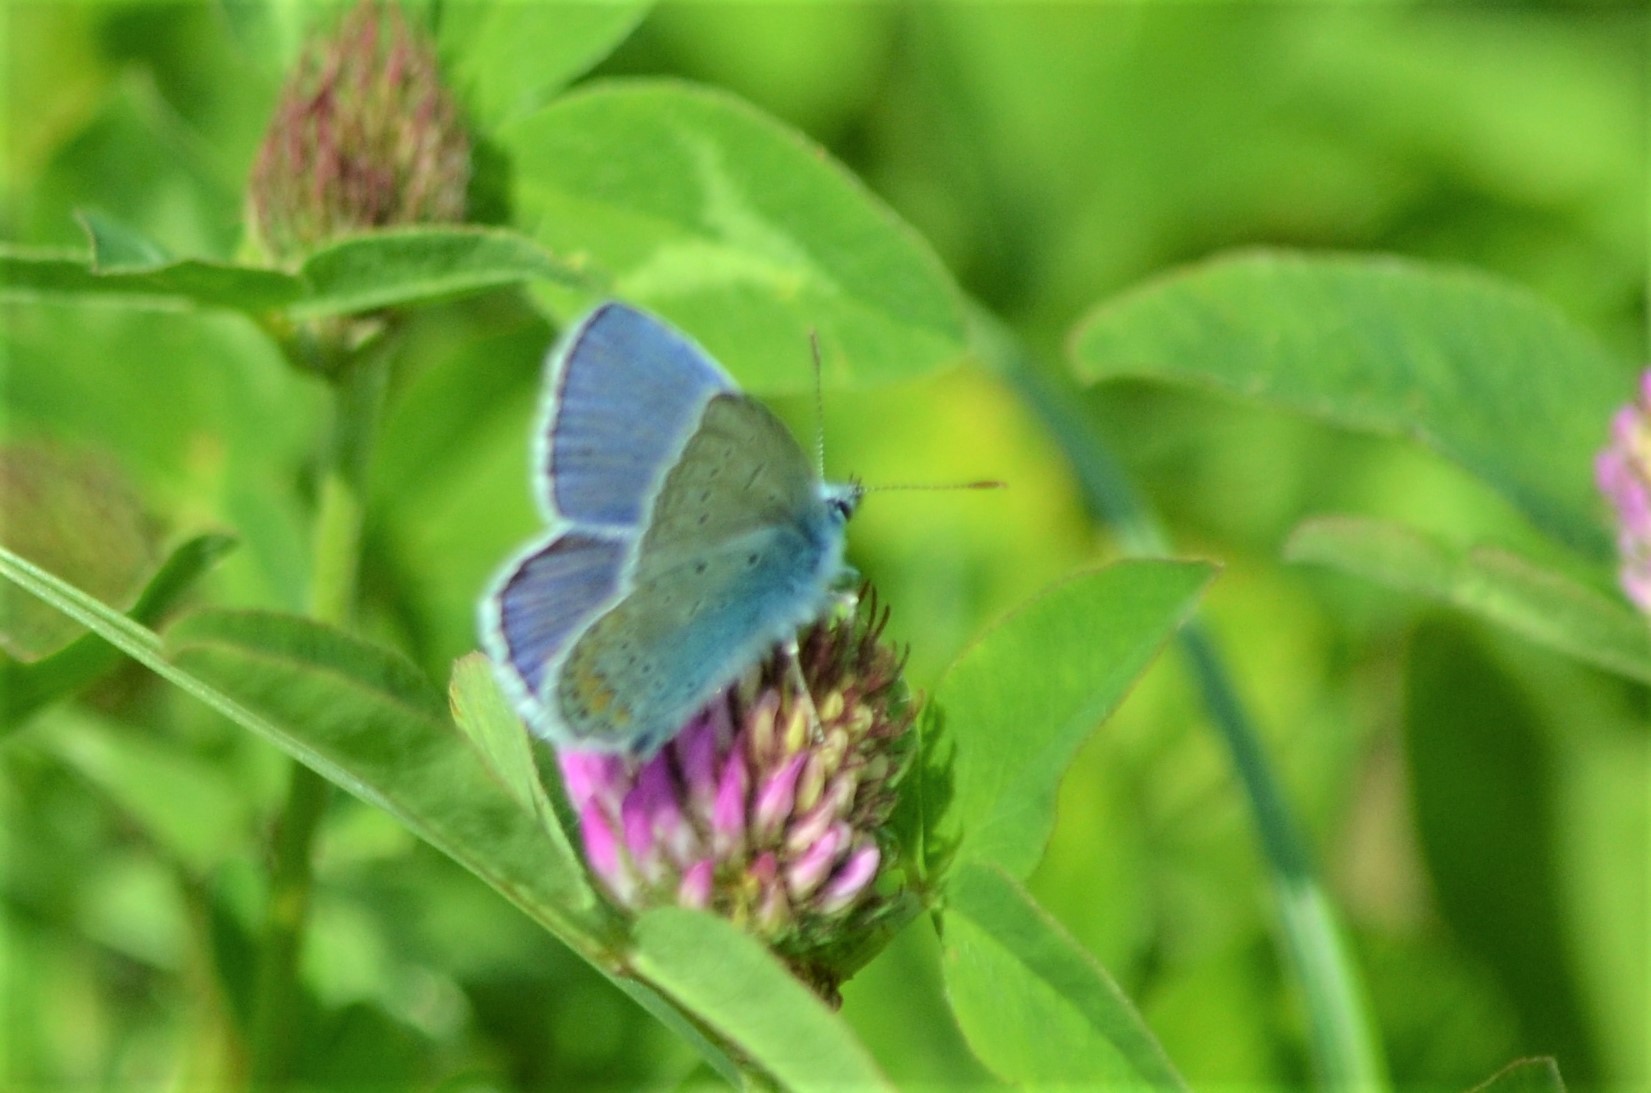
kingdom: Animalia
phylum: Arthropoda
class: Insecta
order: Lepidoptera
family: Lycaenidae
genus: Polyommatus
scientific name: Polyommatus icarus
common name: Common blue
